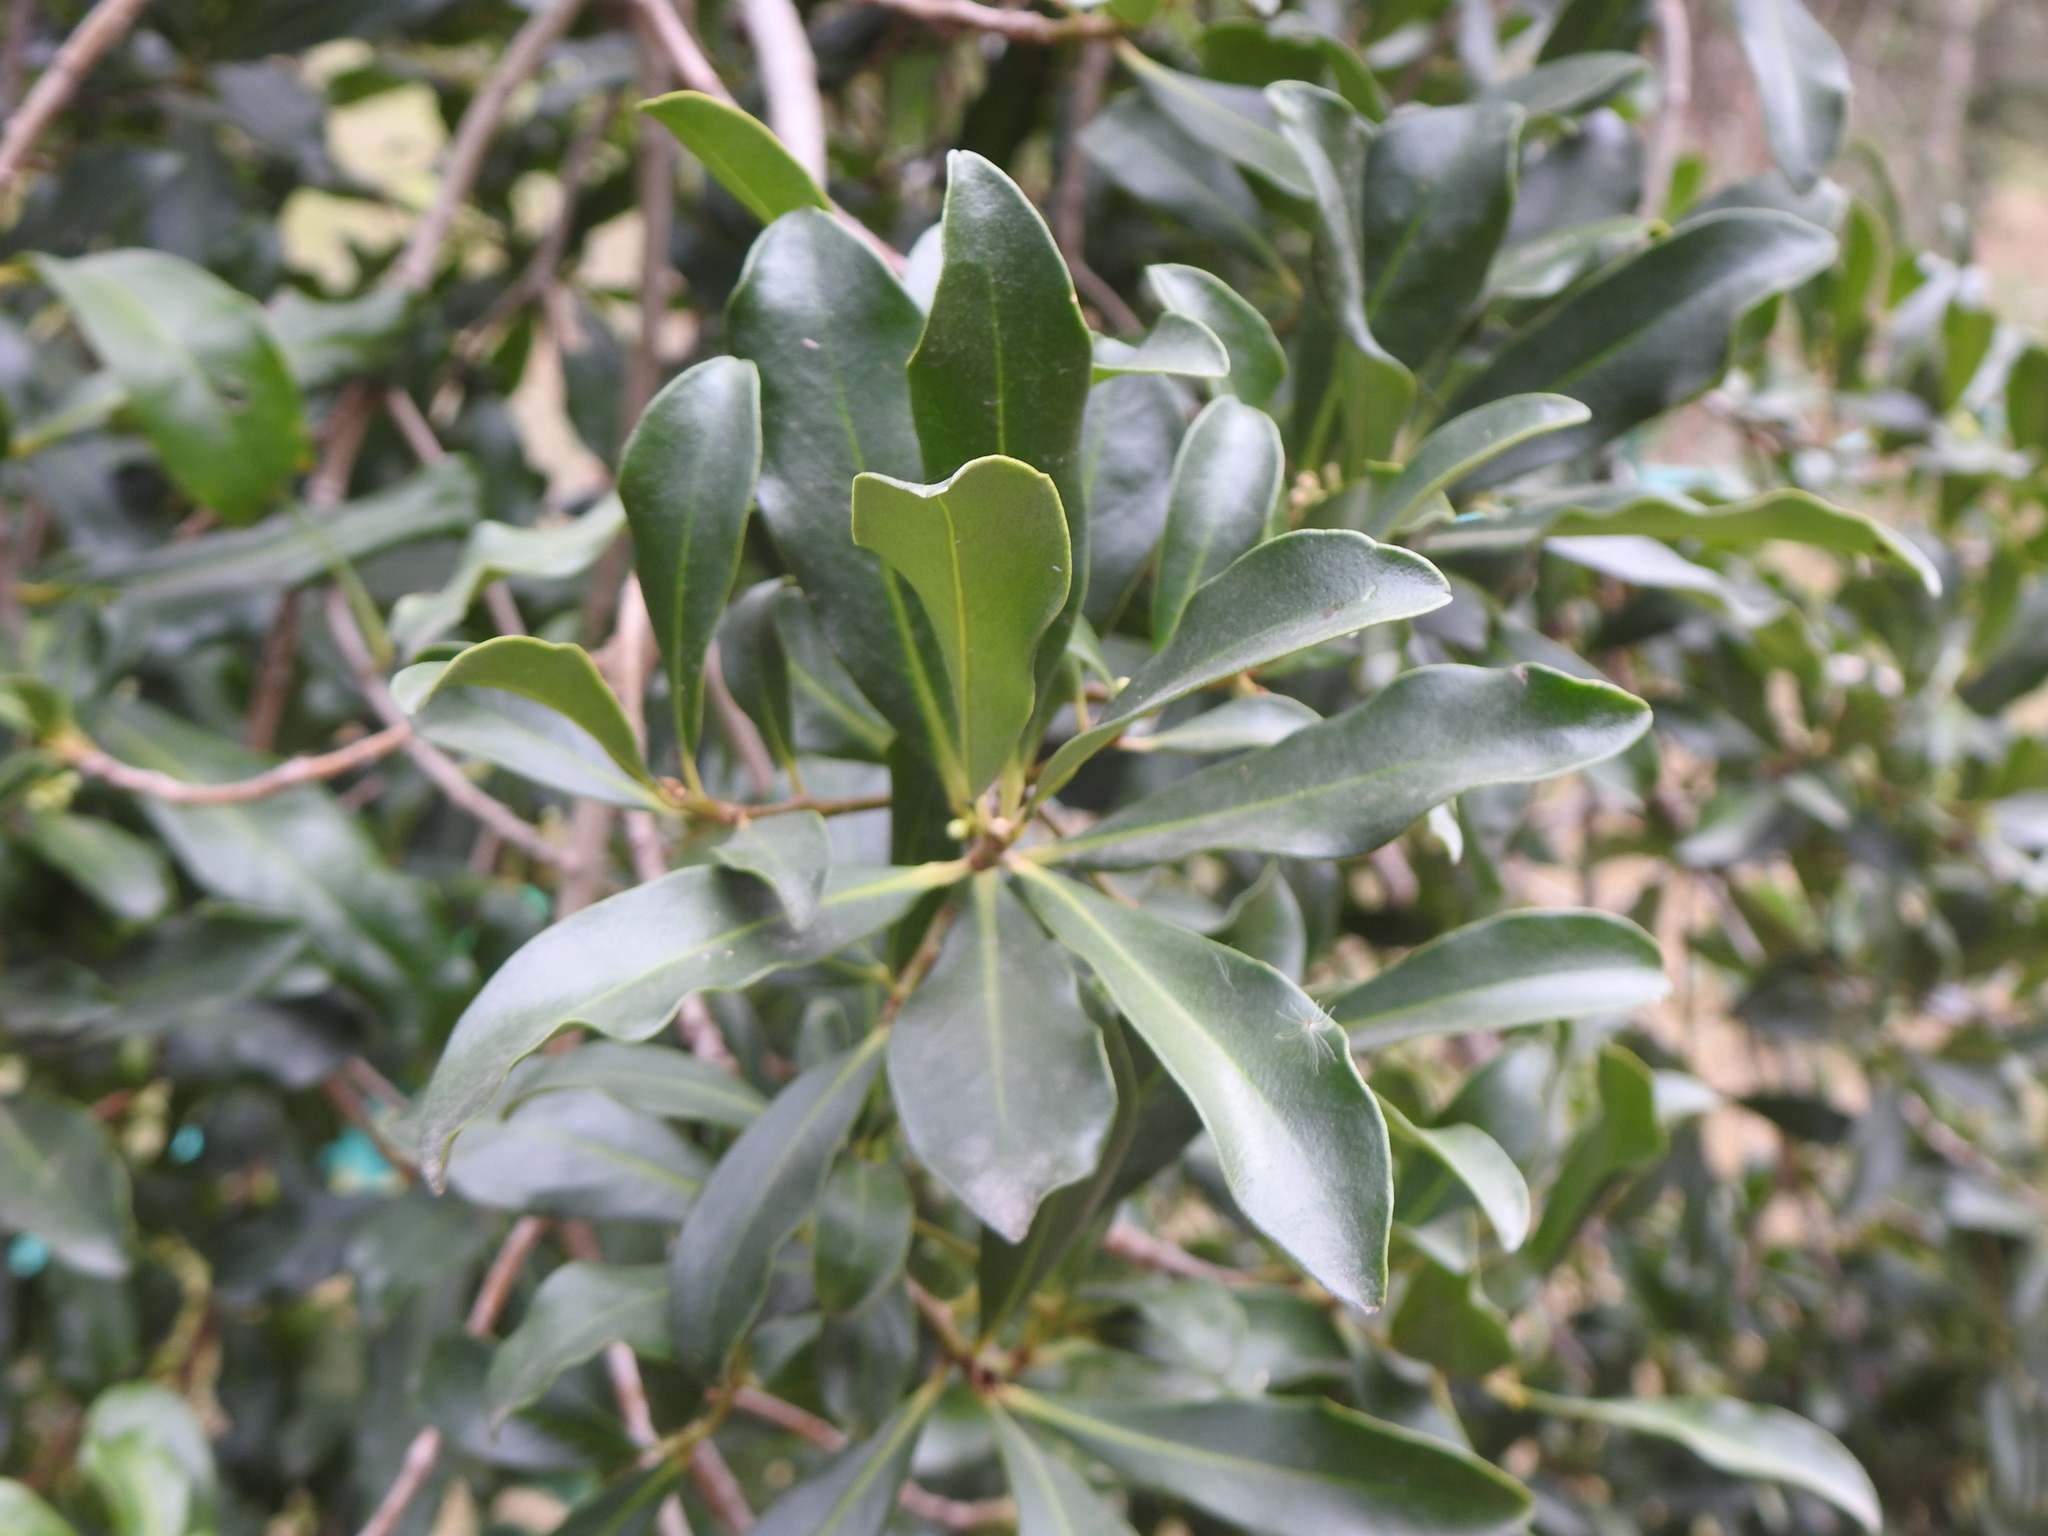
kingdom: Plantae
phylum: Tracheophyta
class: Magnoliopsida
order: Ericales
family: Primulaceae
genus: Myrsine
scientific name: Myrsine laetevirens
